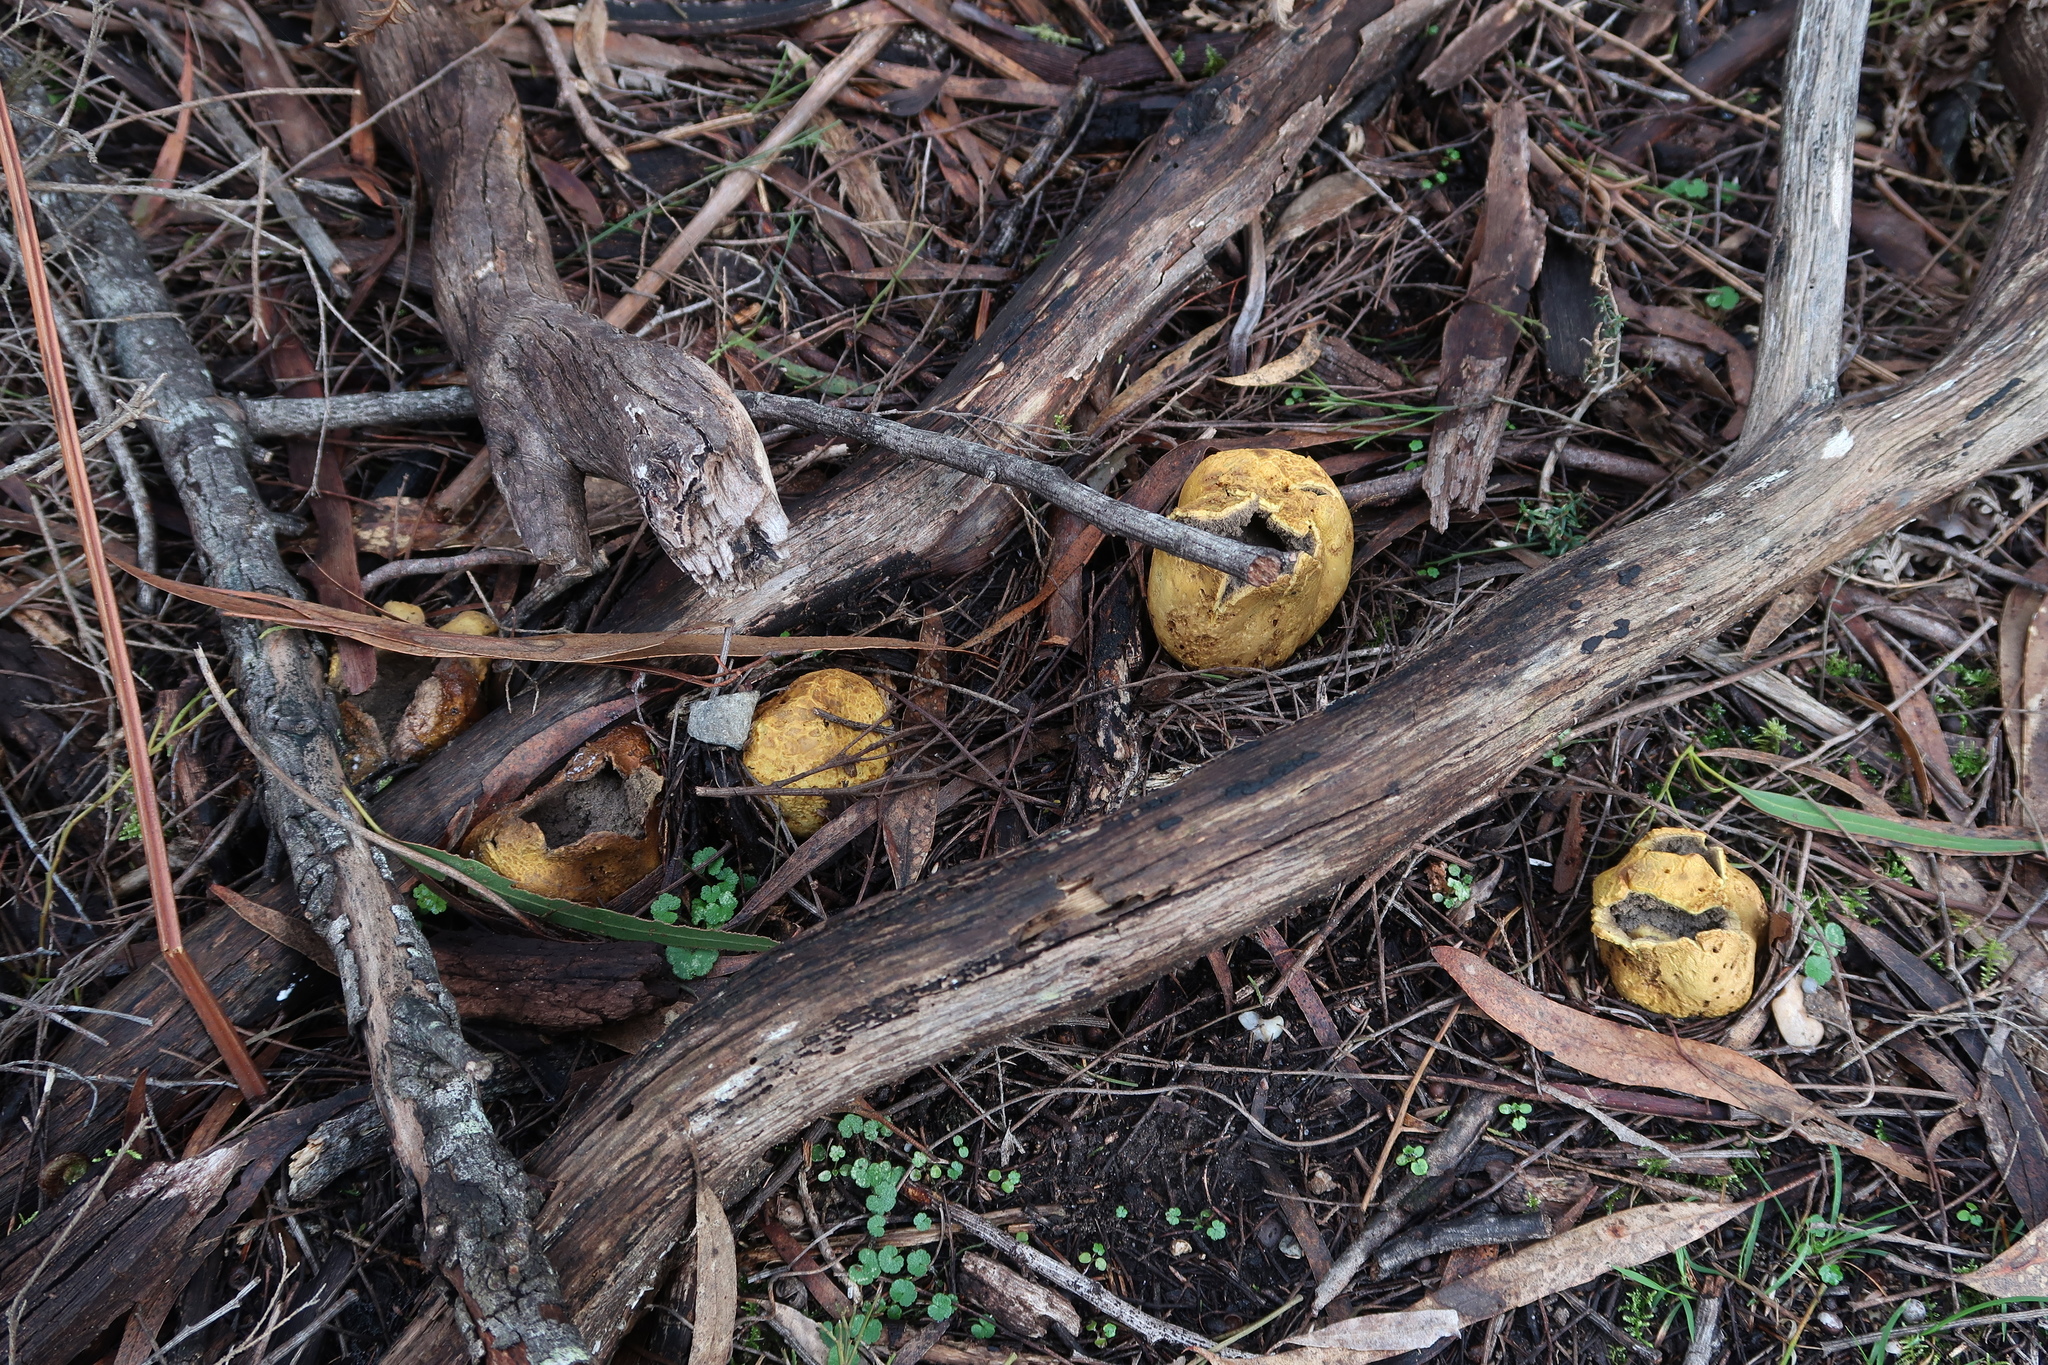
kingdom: Fungi
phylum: Basidiomycota
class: Agaricomycetes
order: Boletales
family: Sclerodermataceae
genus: Scleroderma
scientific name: Scleroderma cepa
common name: Onion earthball
